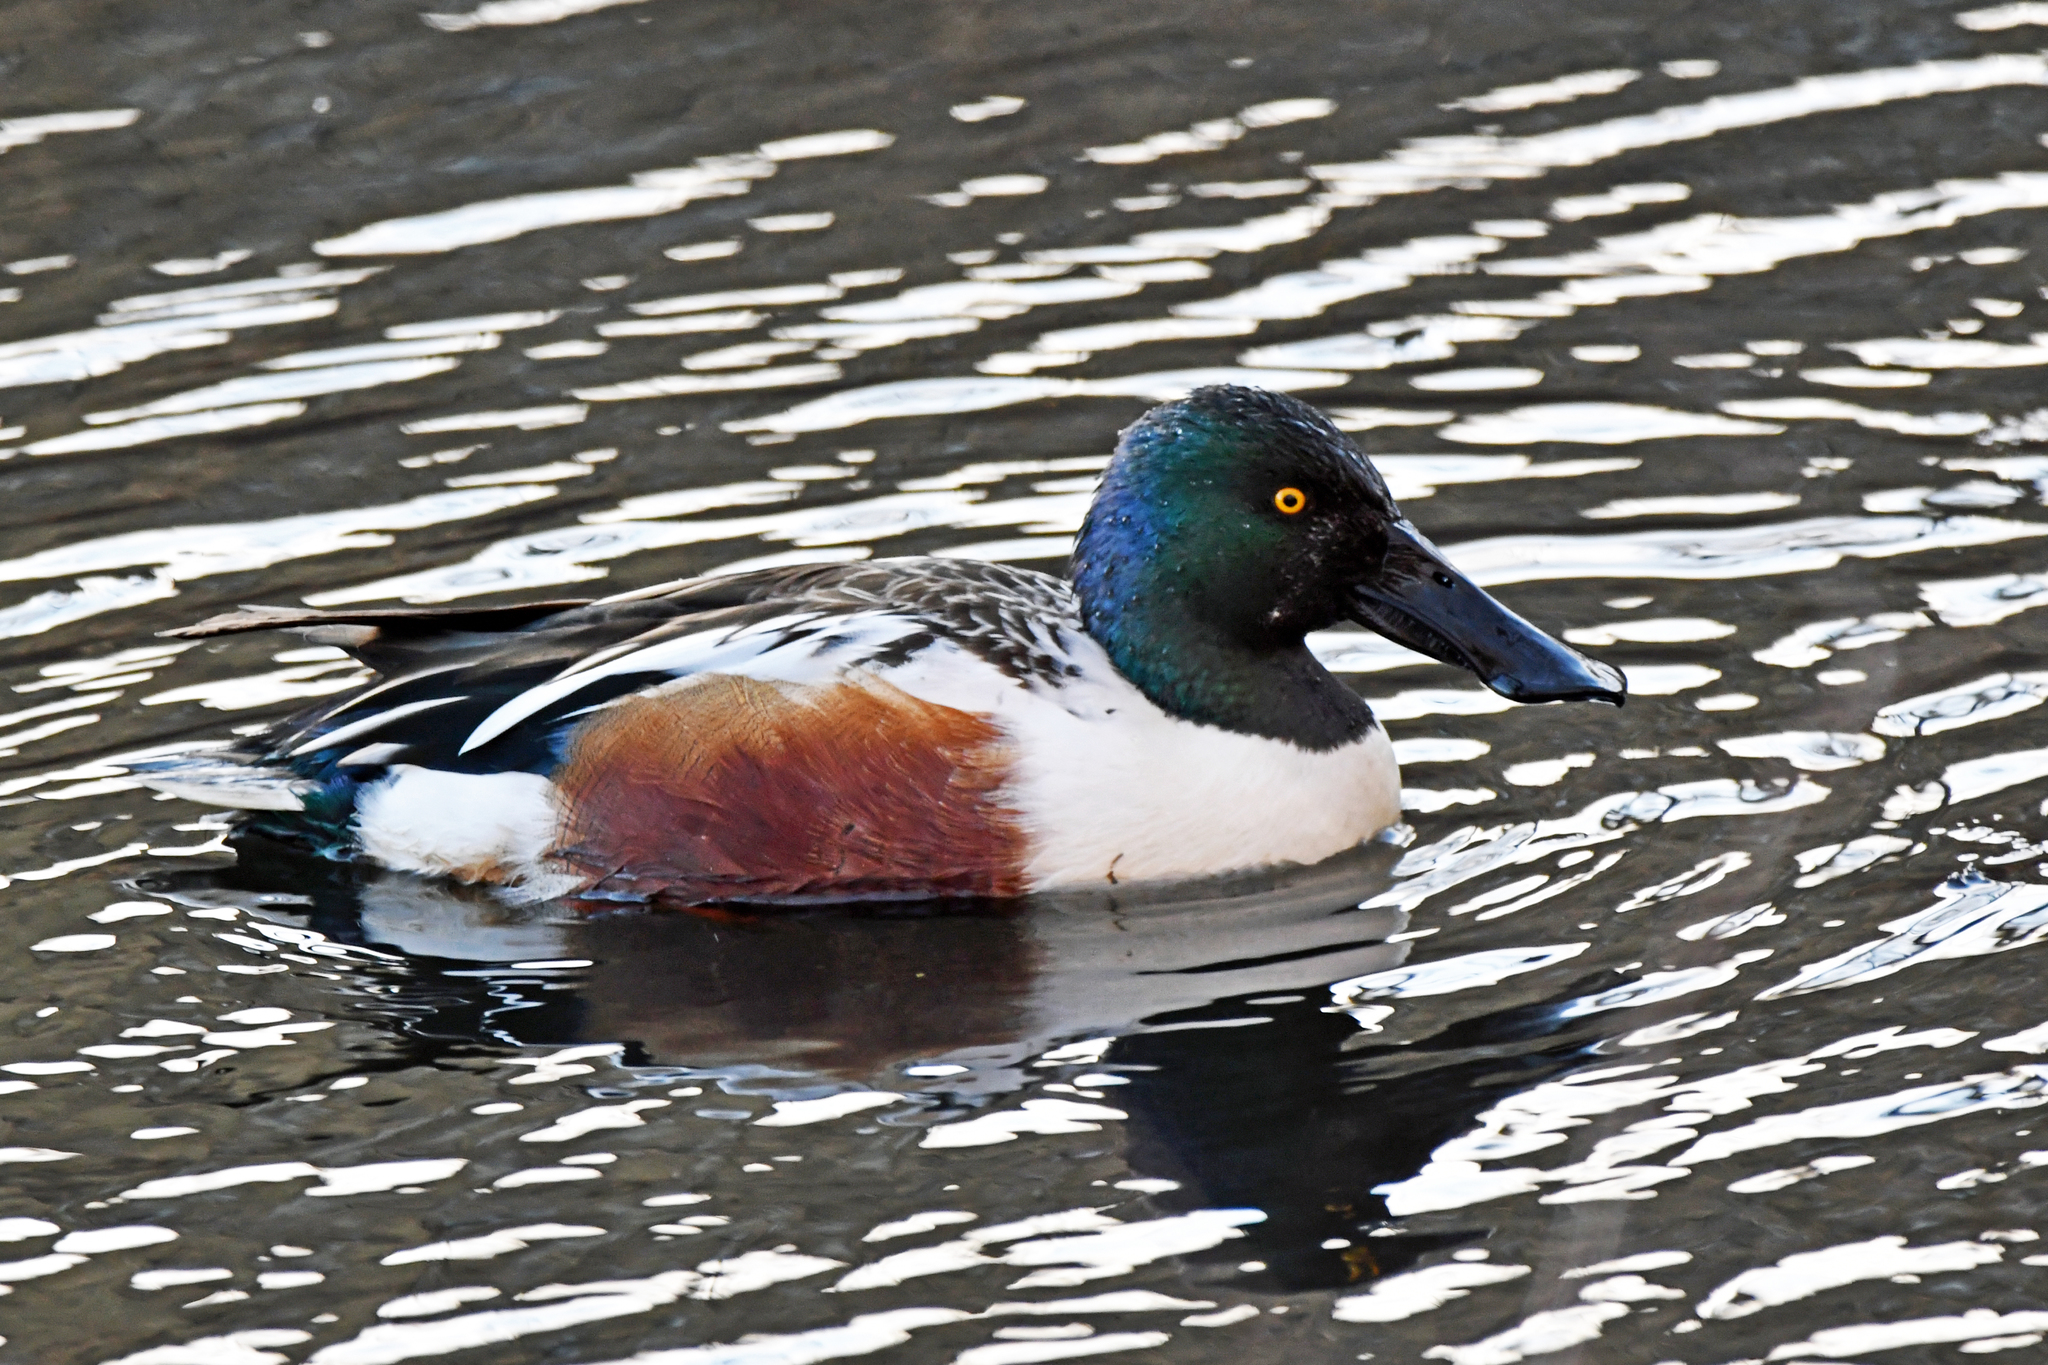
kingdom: Animalia
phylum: Chordata
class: Aves
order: Anseriformes
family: Anatidae
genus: Spatula
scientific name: Spatula clypeata
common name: Northern shoveler
